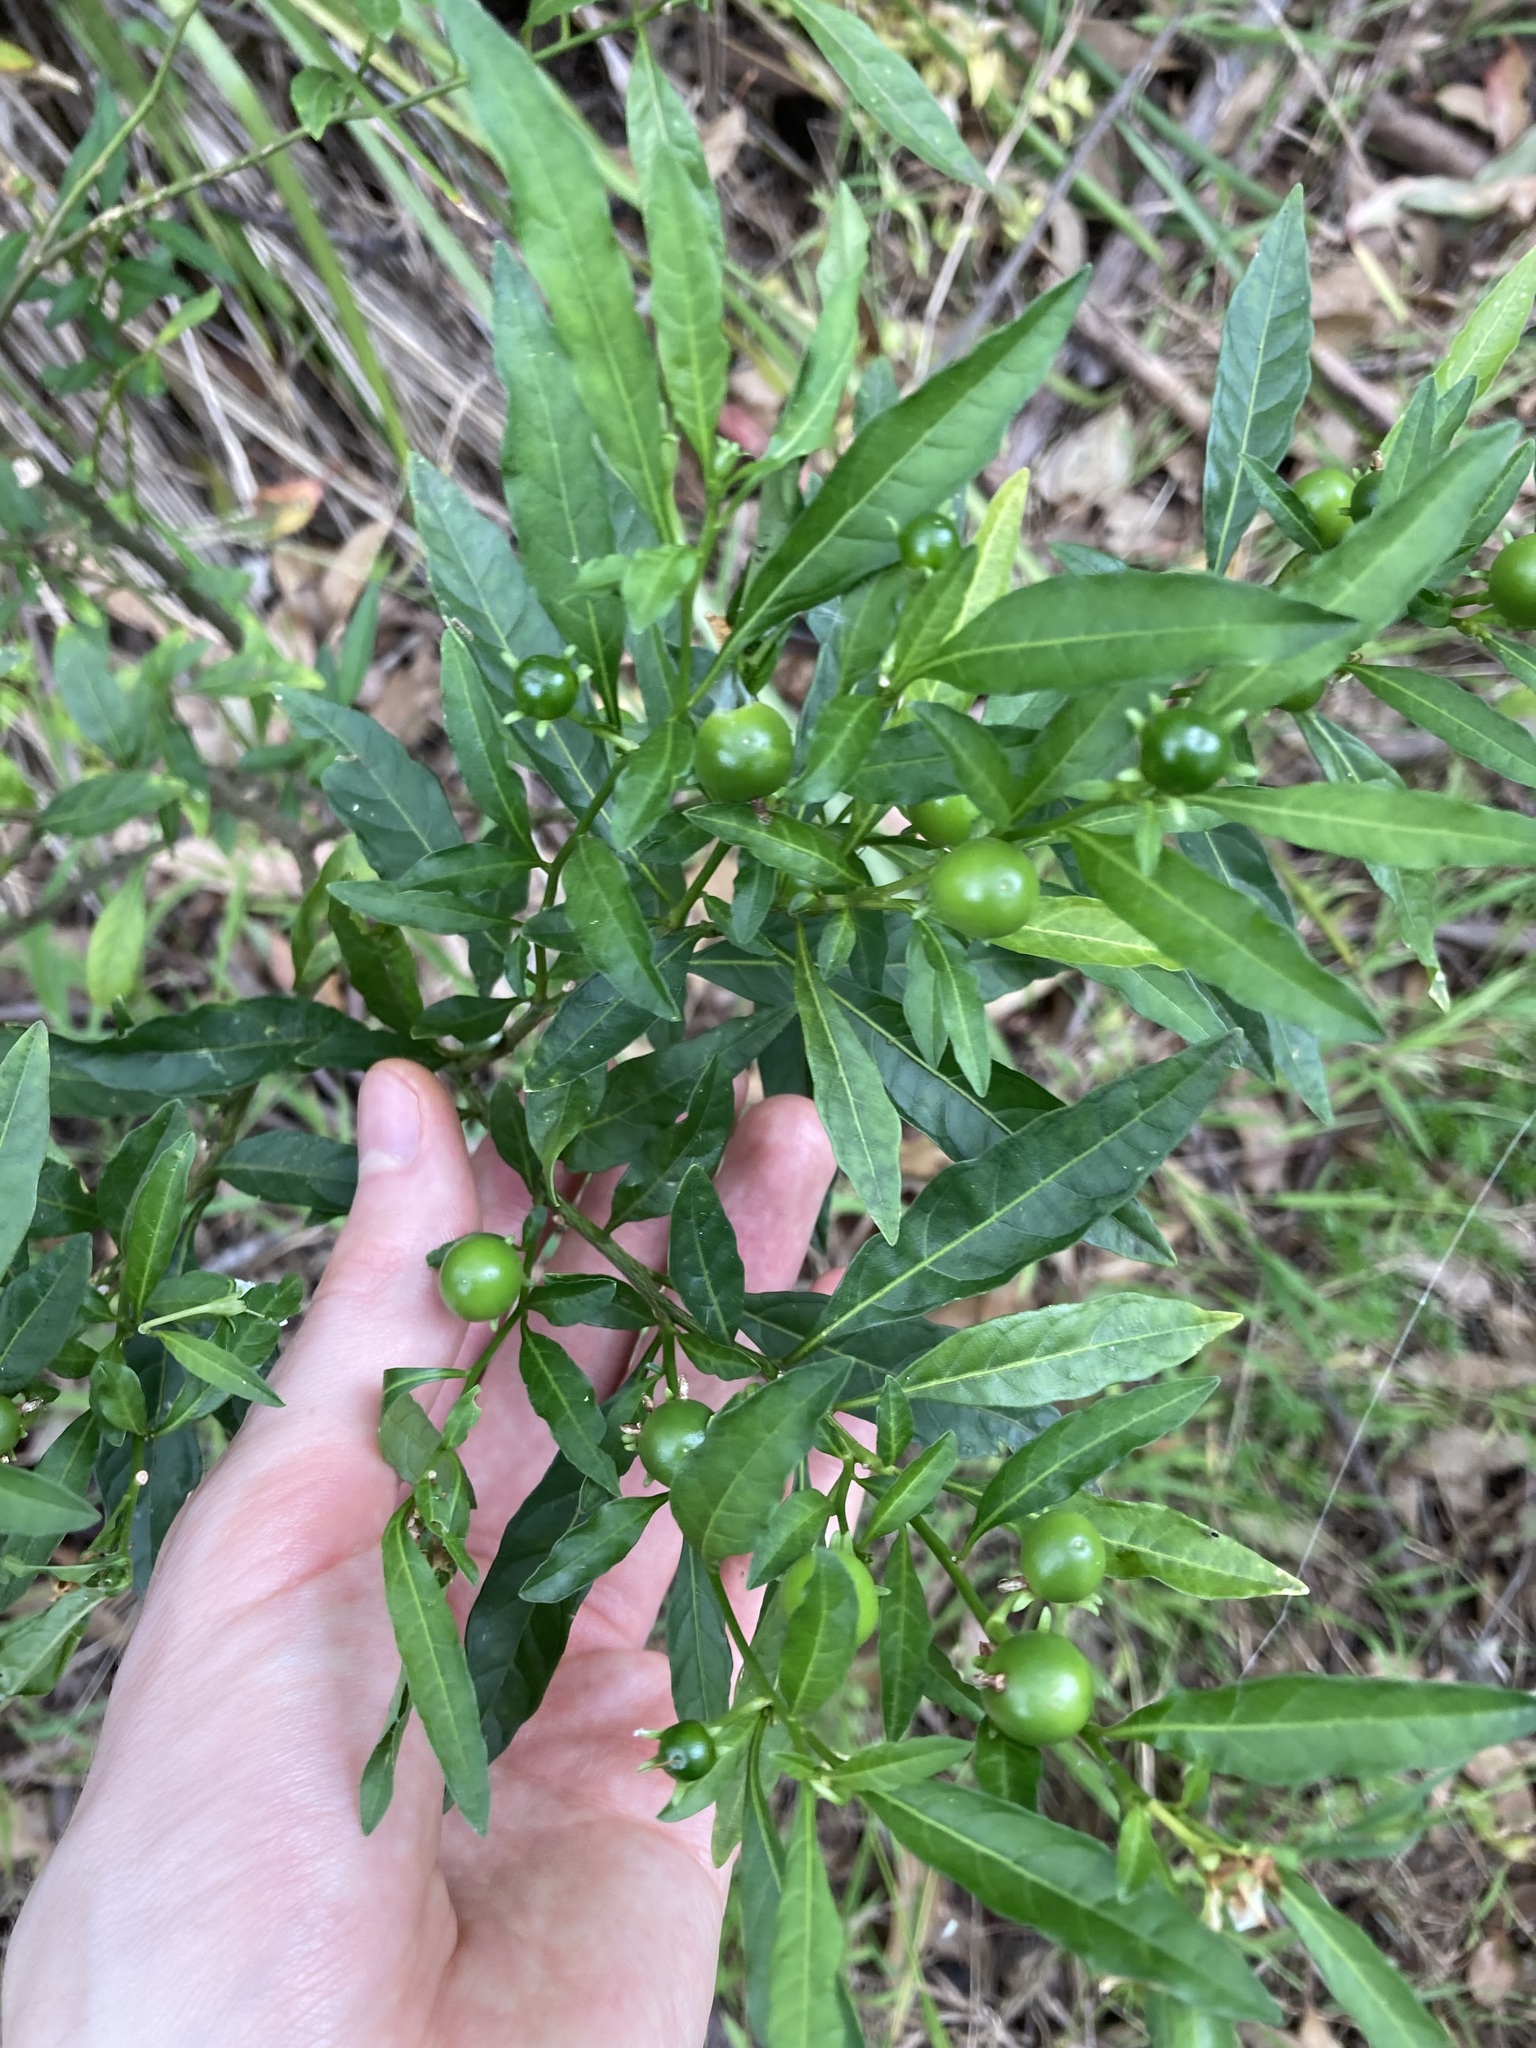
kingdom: Plantae
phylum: Tracheophyta
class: Magnoliopsida
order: Solanales
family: Solanaceae
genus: Solanum
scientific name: Solanum pseudocapsicum
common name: Jerusalem cherry
